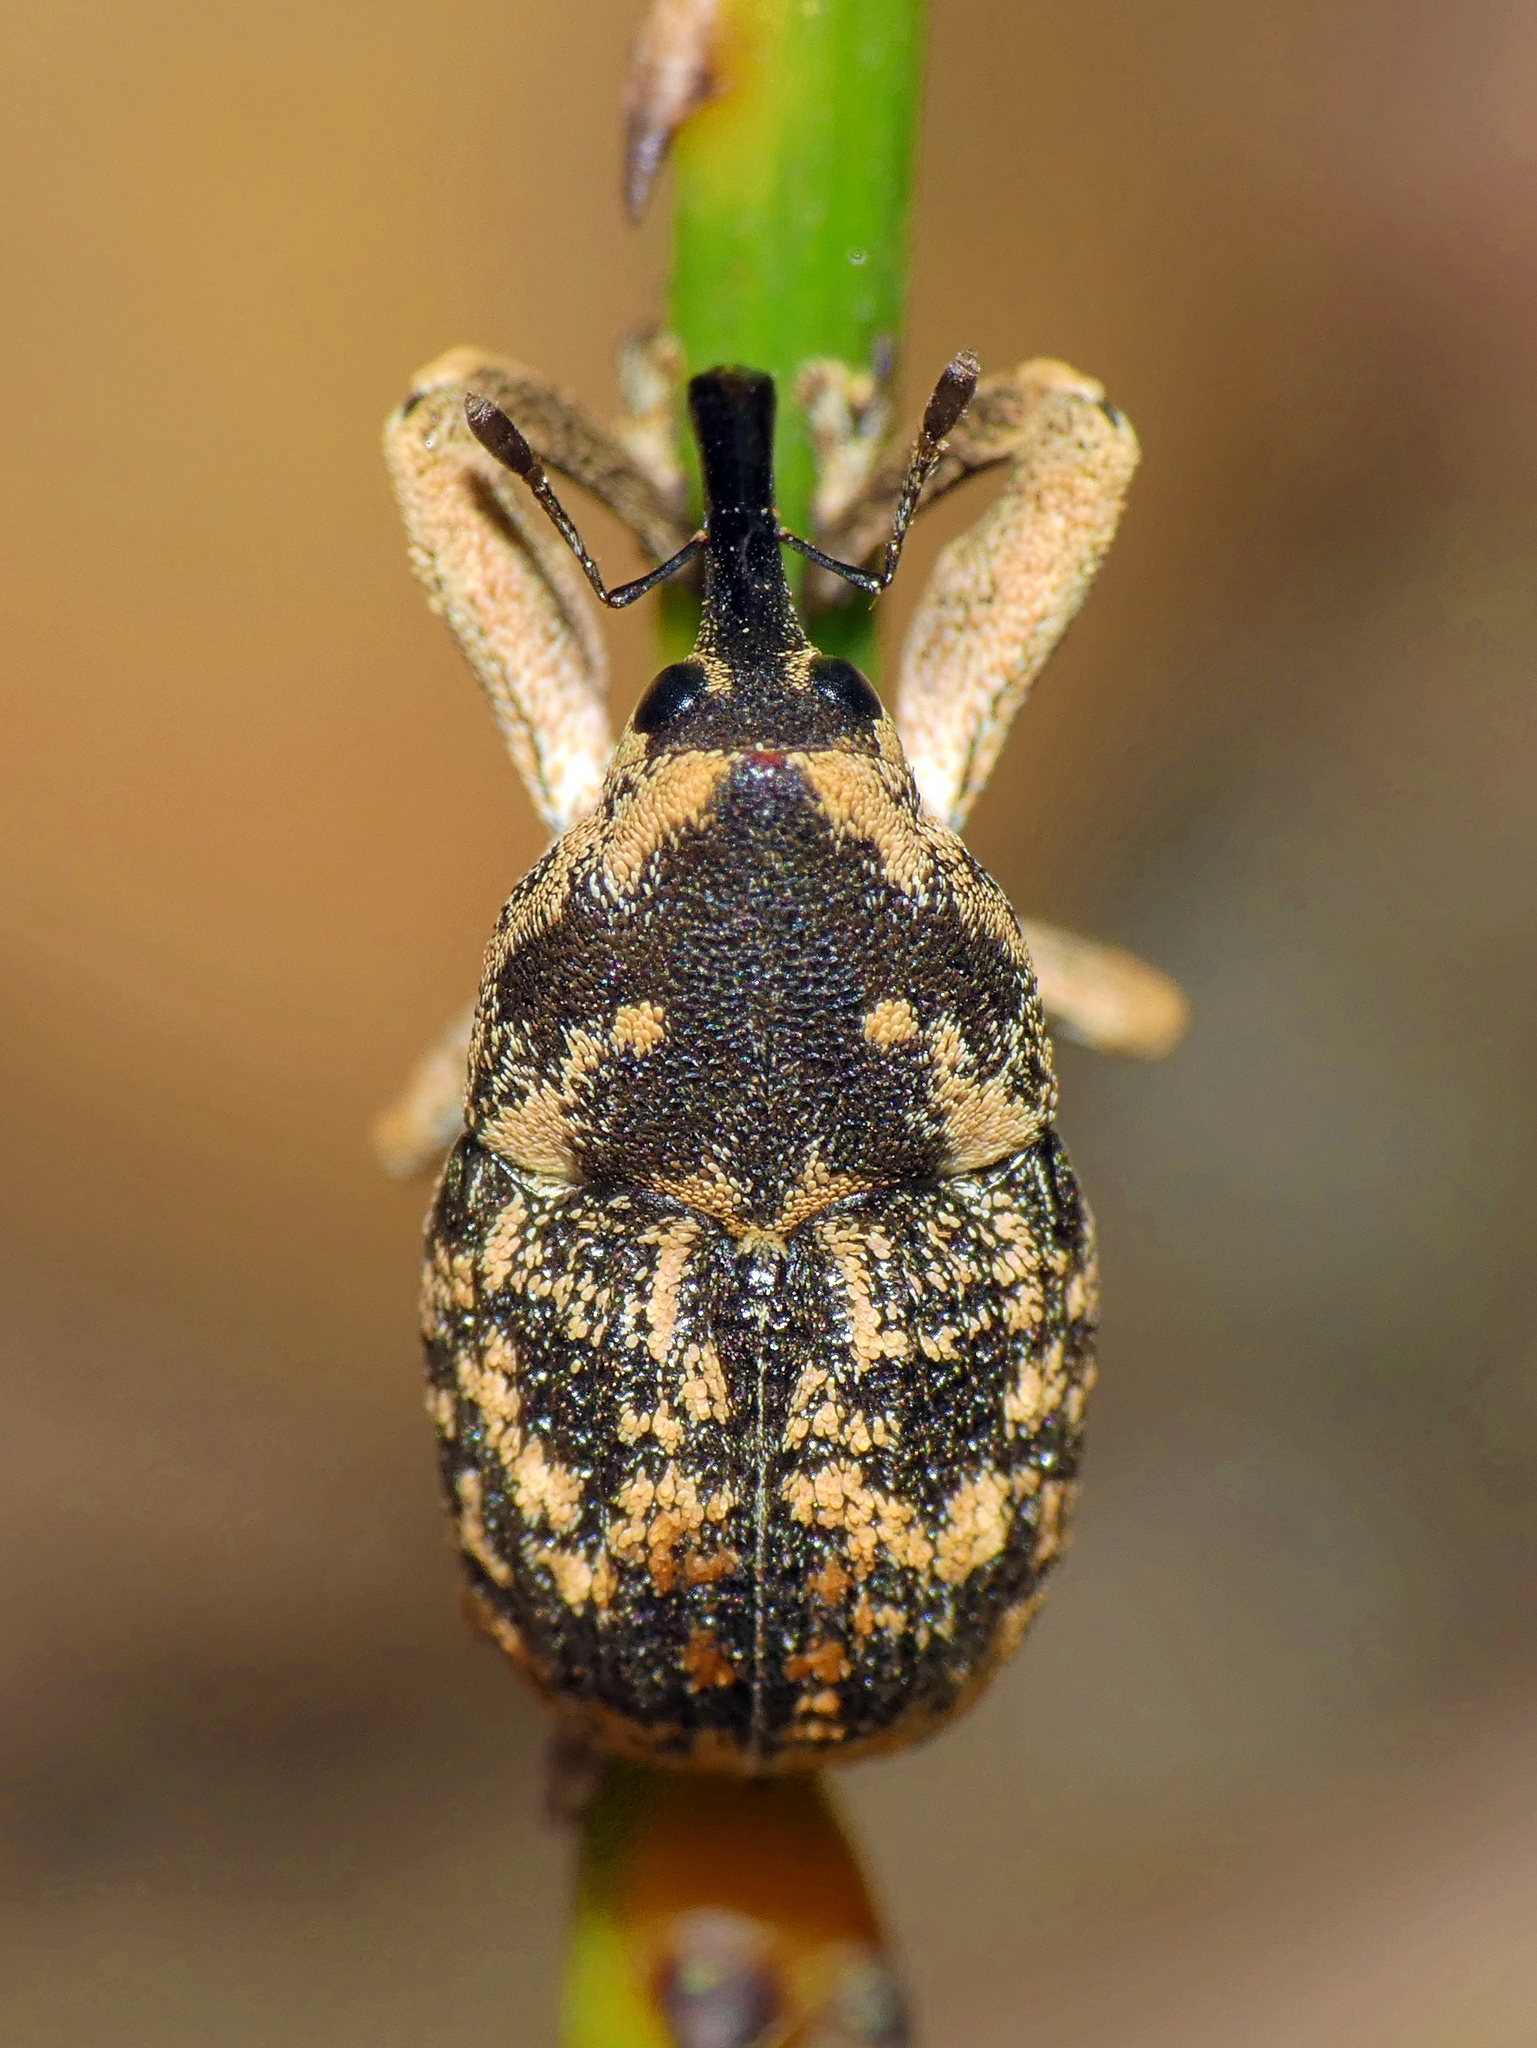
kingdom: Animalia
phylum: Arthropoda
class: Insecta
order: Coleoptera
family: Curculionidae
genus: Eutyrhinus
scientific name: Eutyrhinus meditabundus
